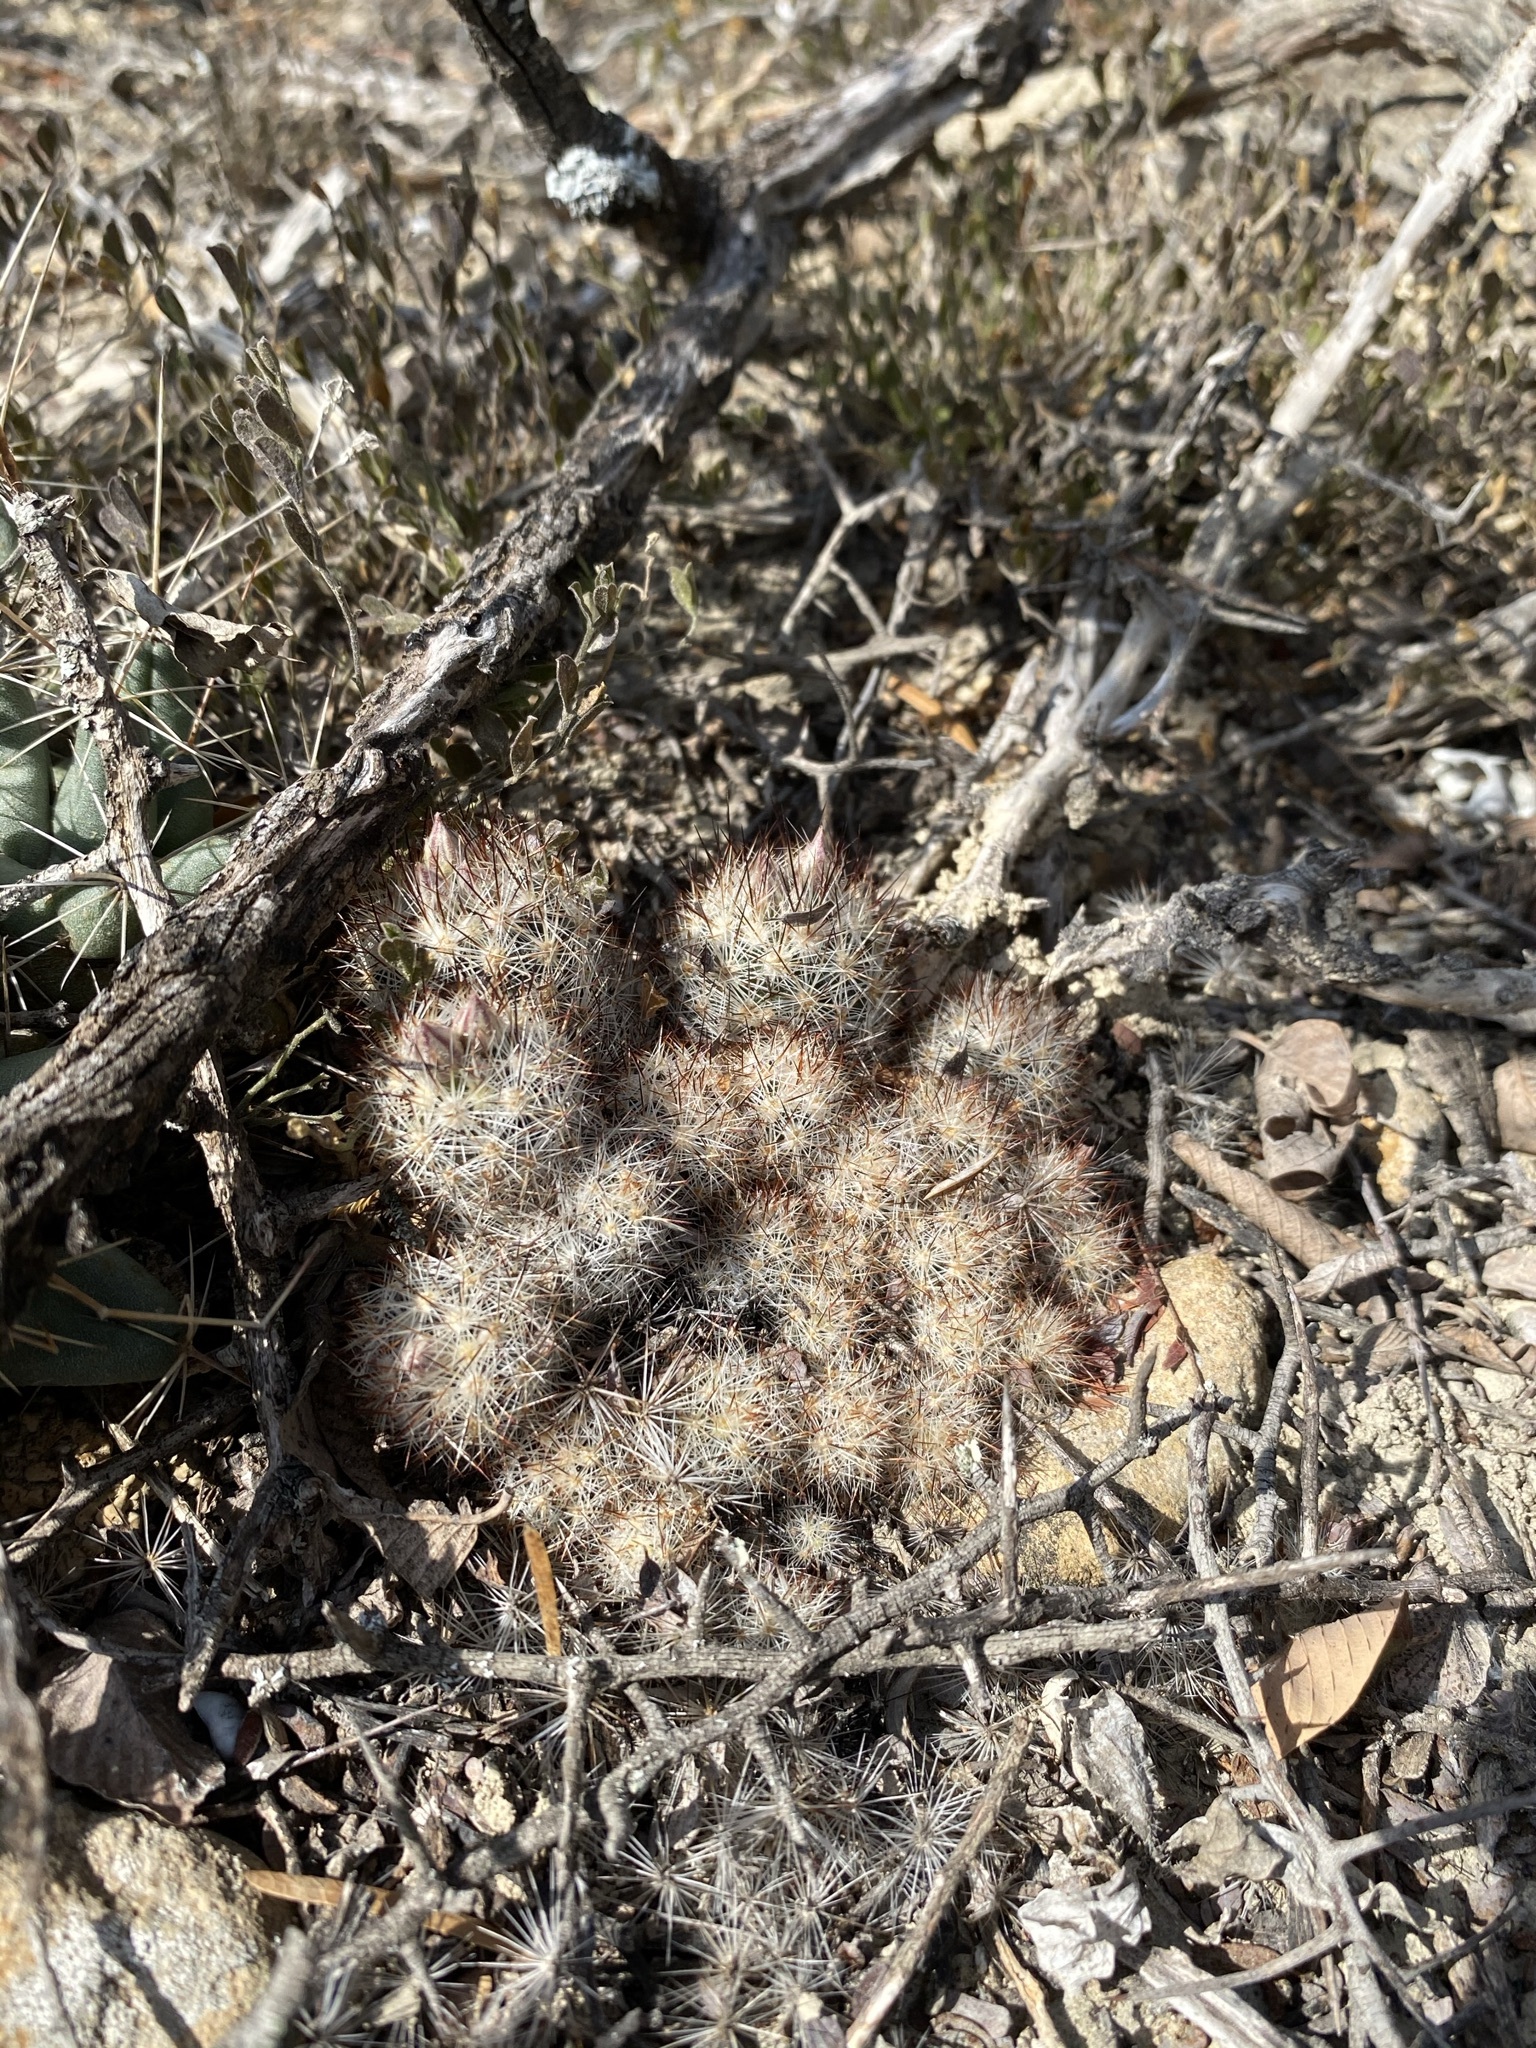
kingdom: Plantae
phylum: Tracheophyta
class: Magnoliopsida
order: Caryophyllales
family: Cactaceae
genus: Pelecyphora
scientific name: Pelecyphora emskoetteriana
